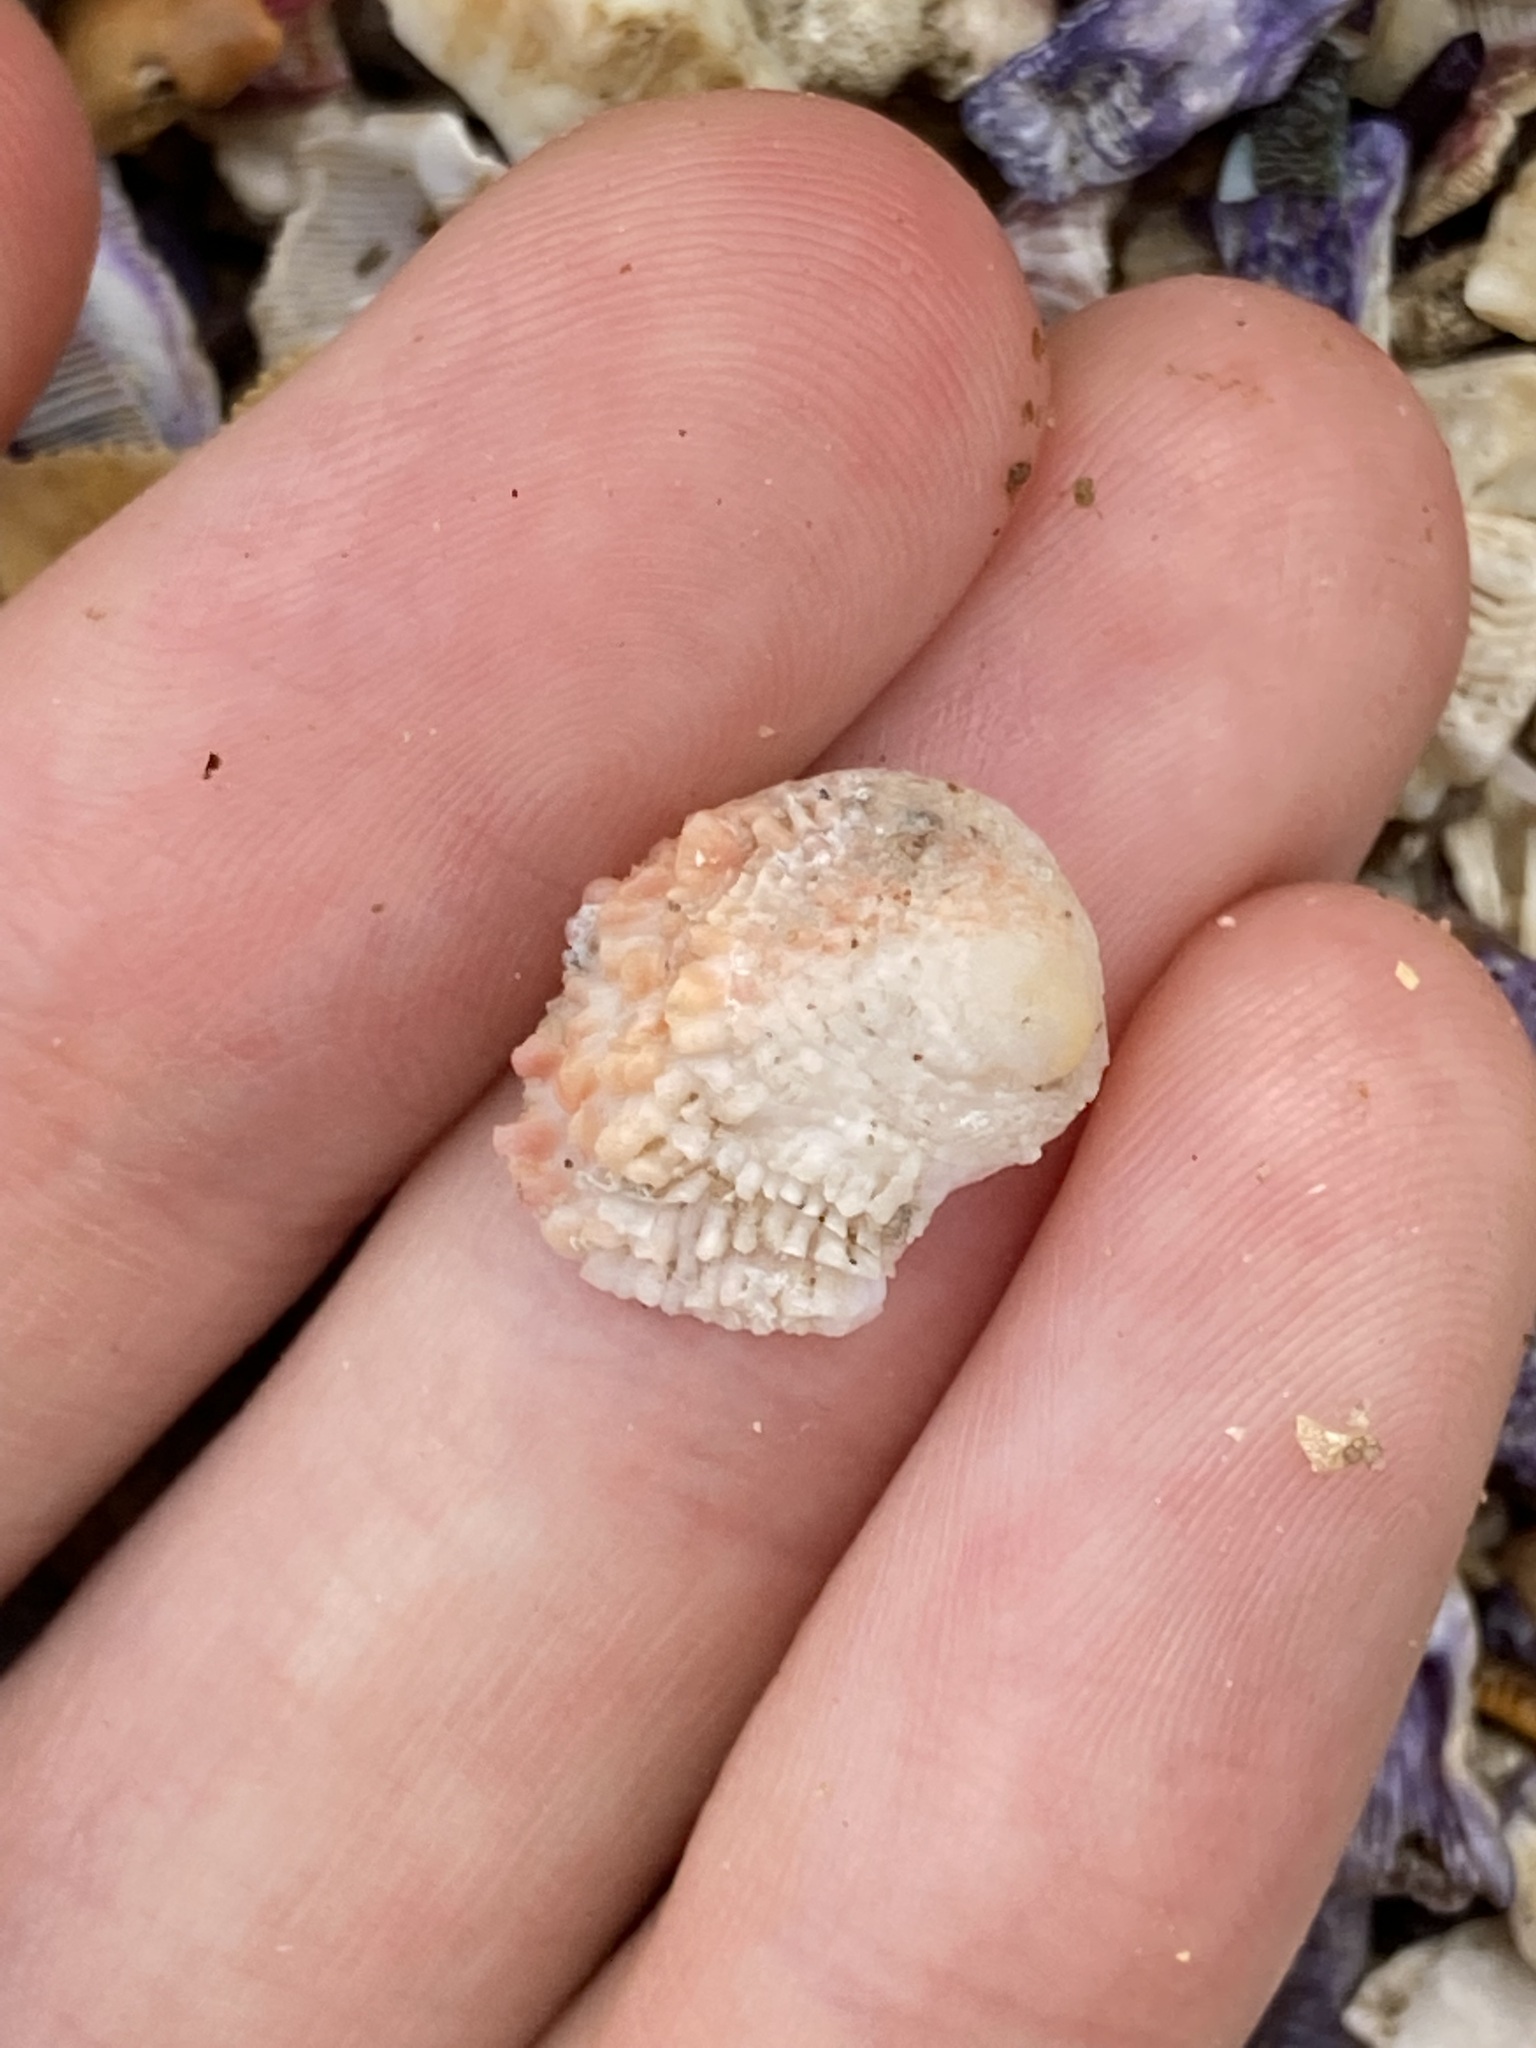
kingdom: Animalia
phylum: Mollusca
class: Bivalvia
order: Venerida
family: Chamidae
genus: Chama
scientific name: Chama asperella
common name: Mollusca
